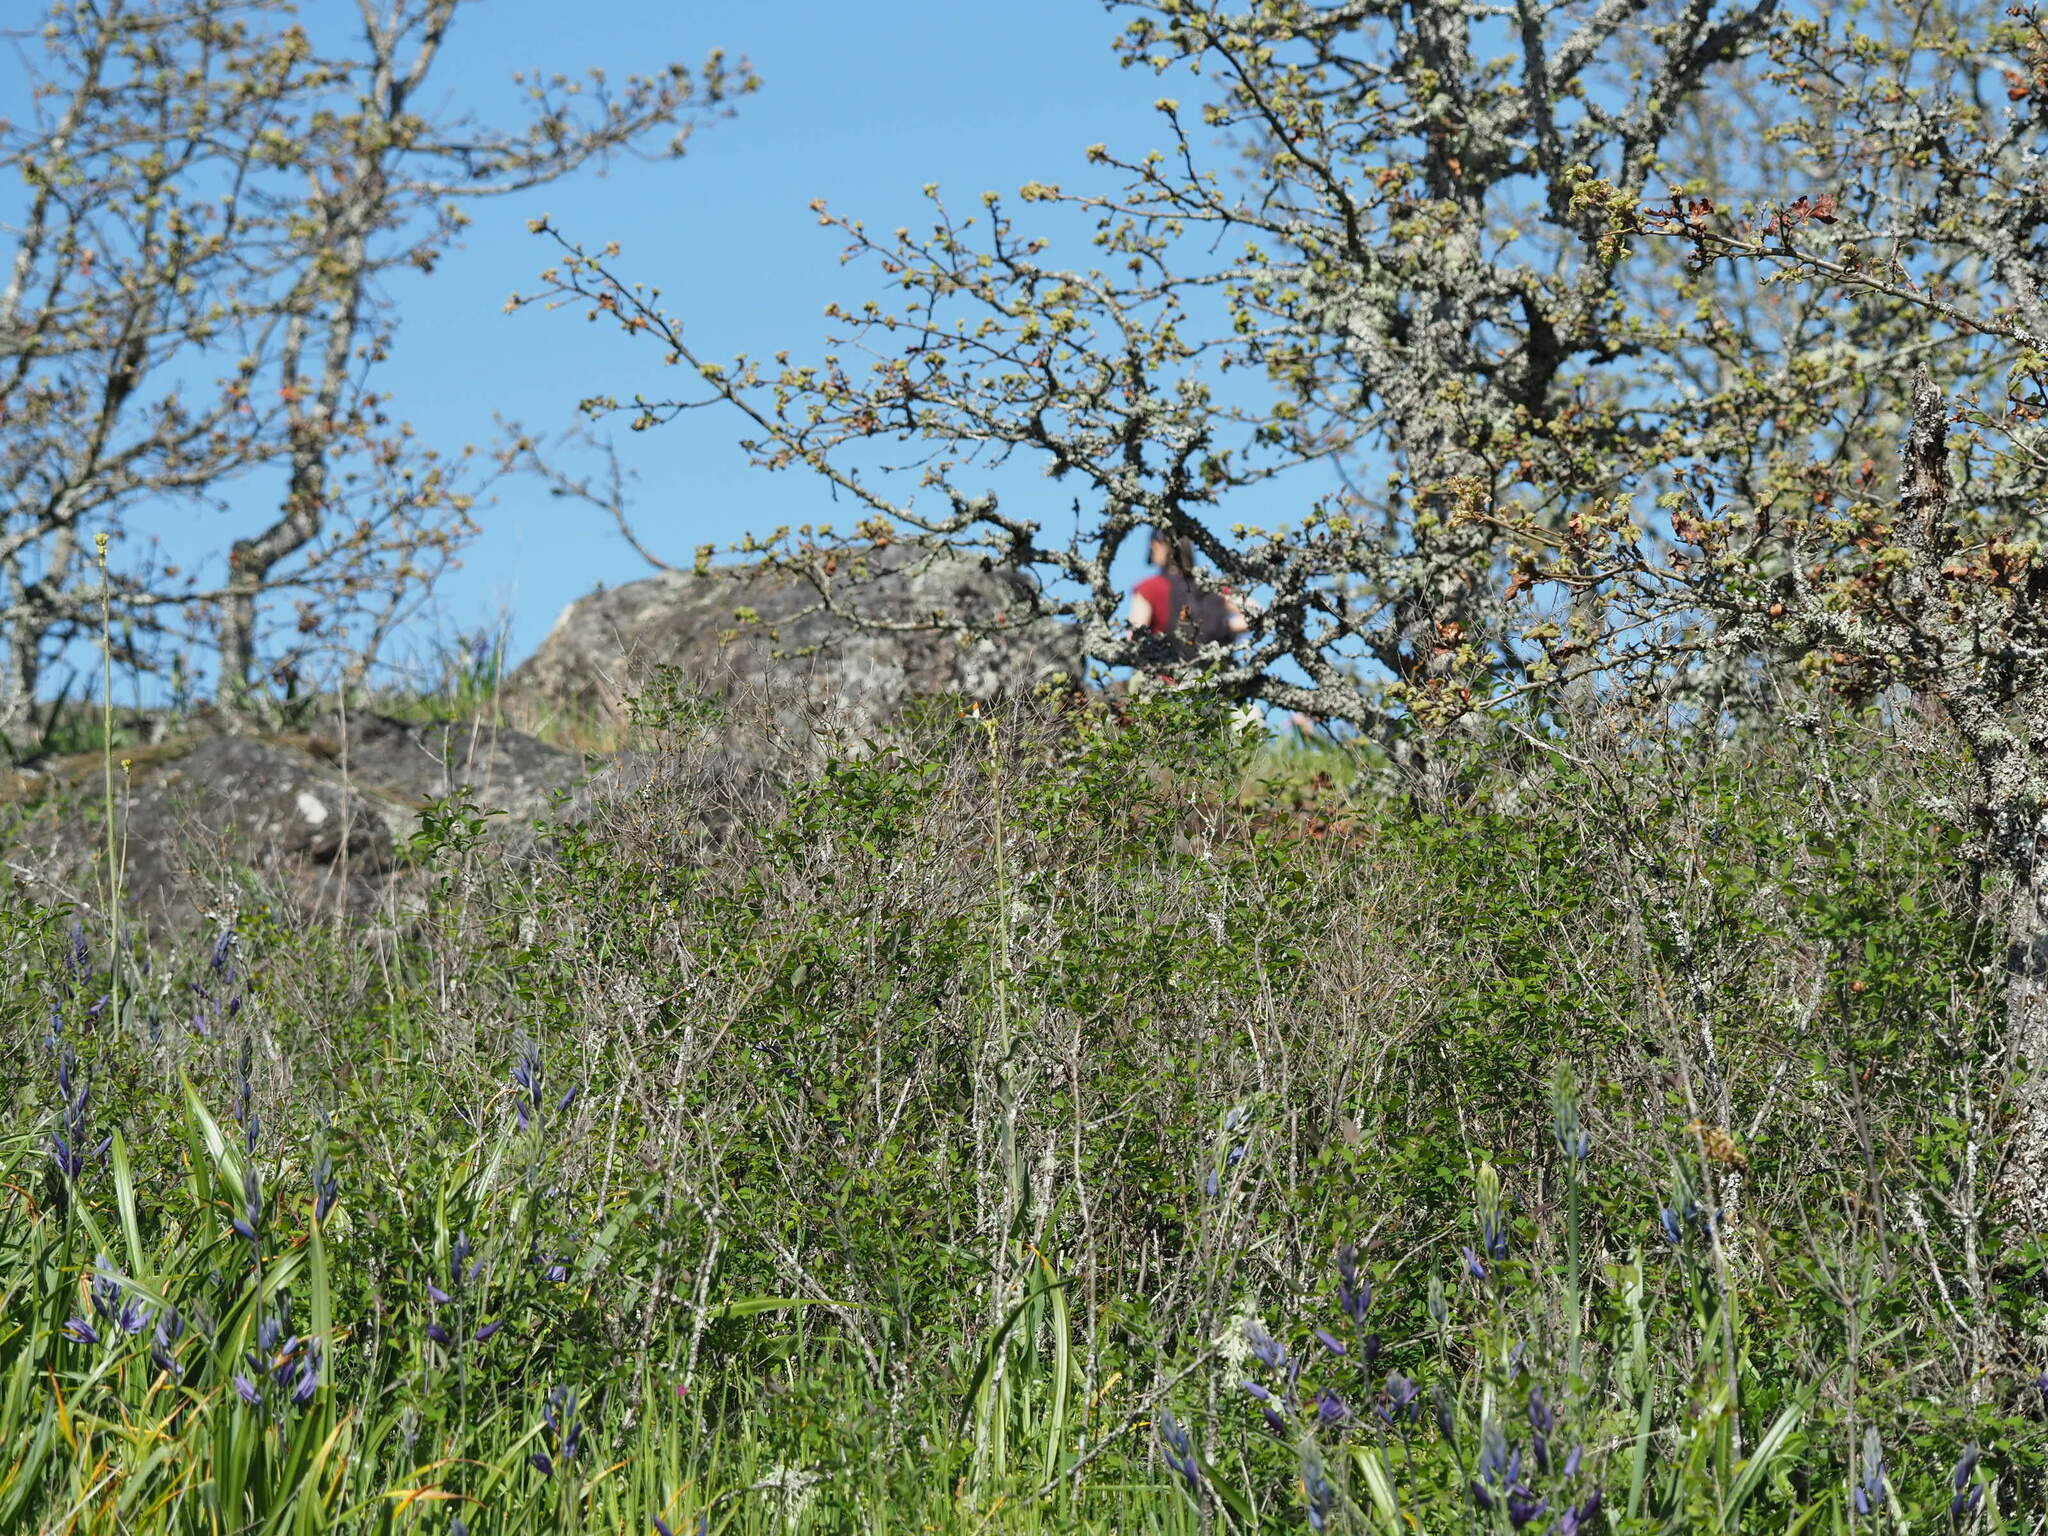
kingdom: Animalia
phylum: Arthropoda
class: Insecta
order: Lepidoptera
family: Pieridae
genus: Anthocharis
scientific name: Anthocharis julia
